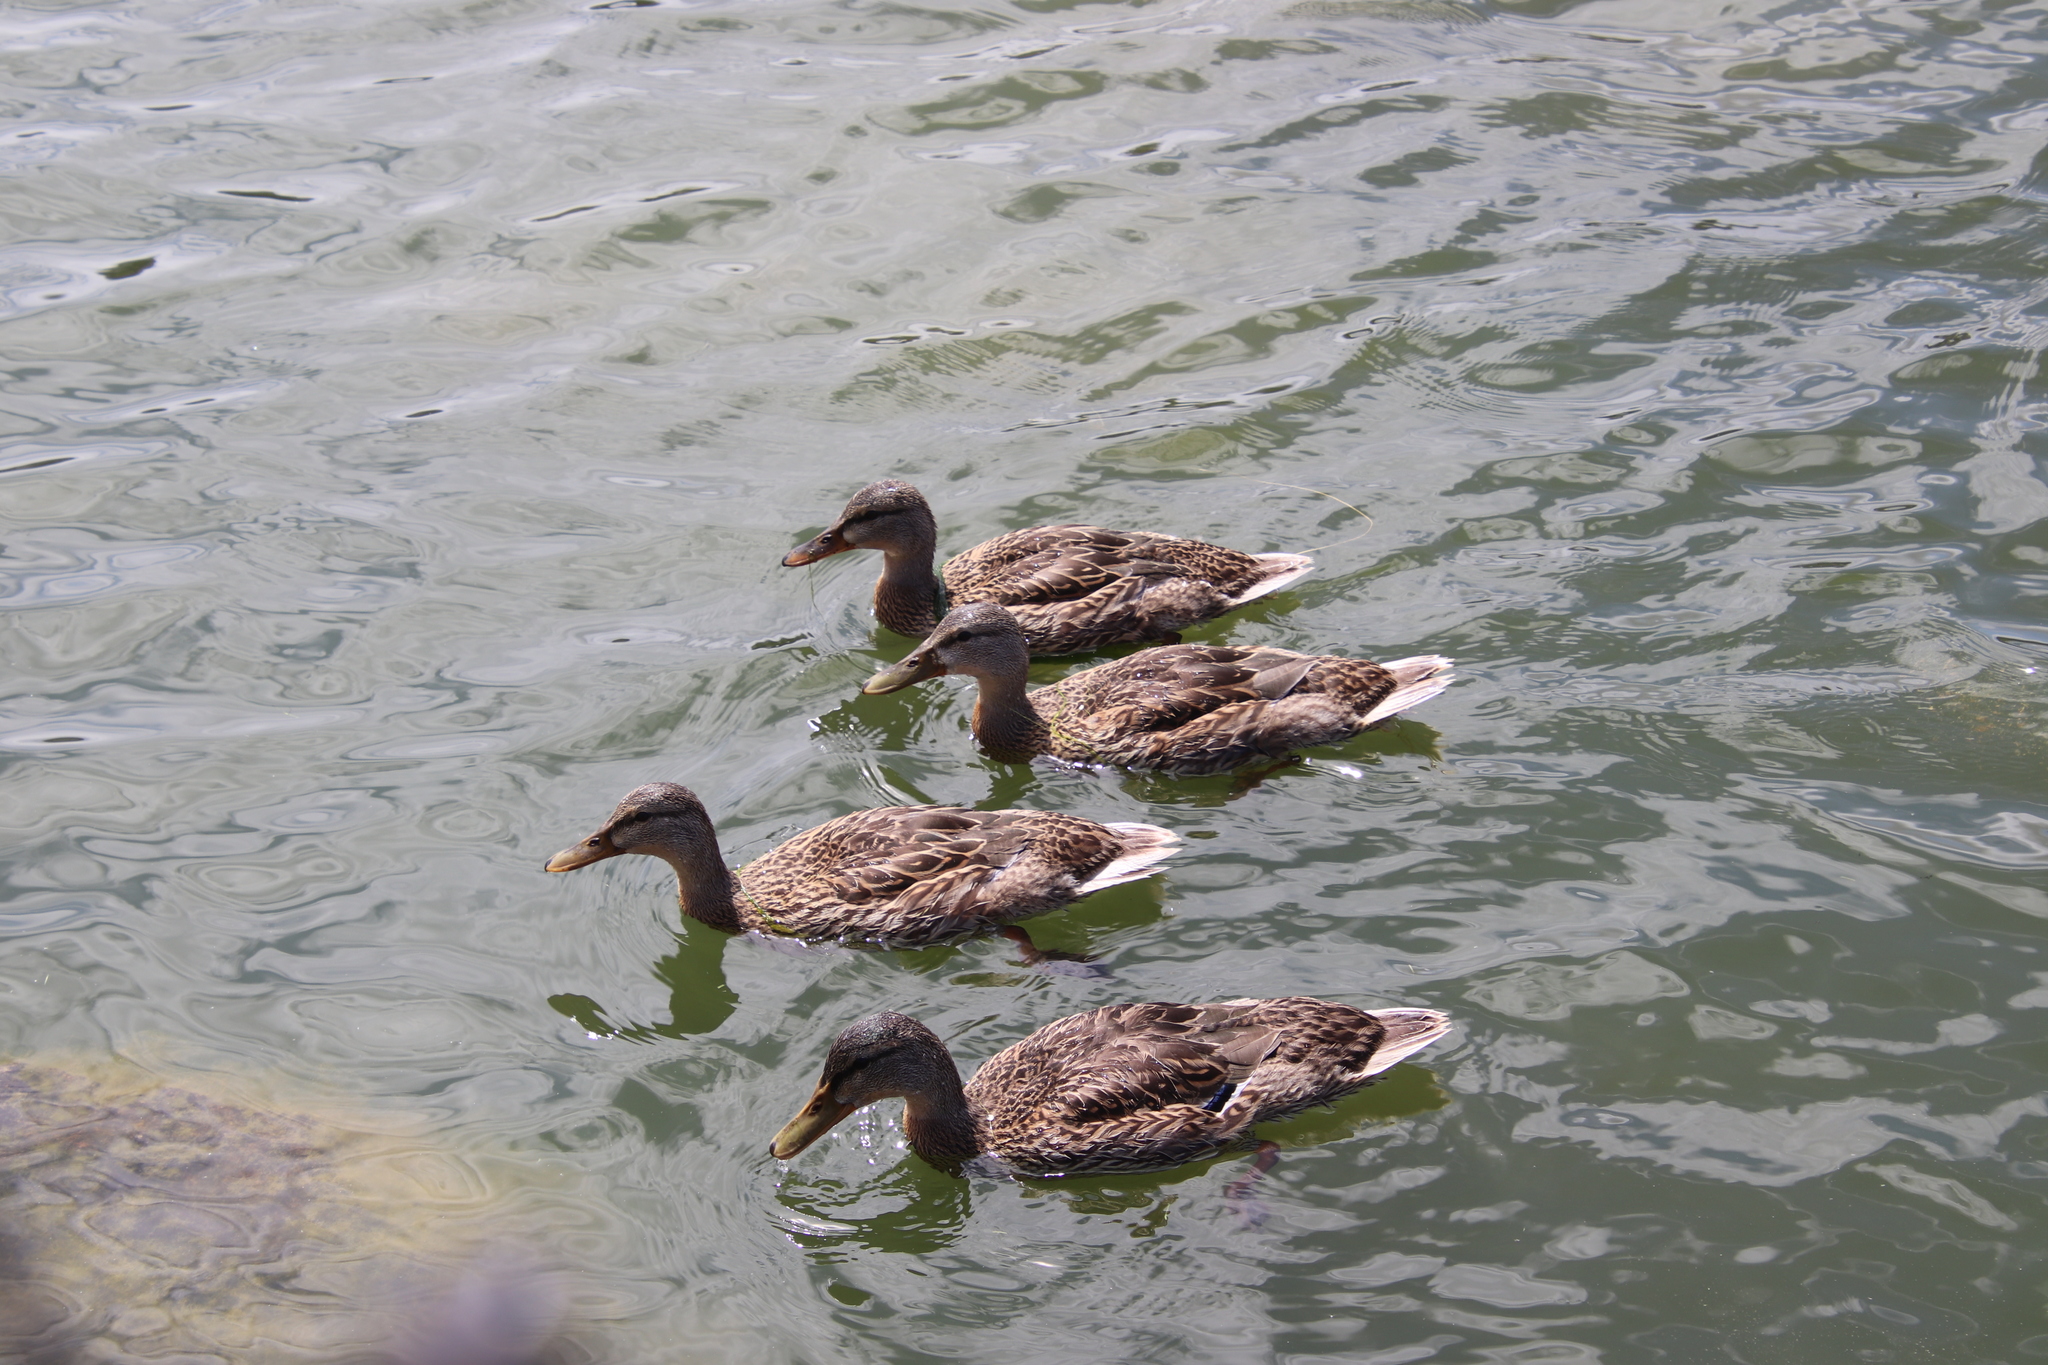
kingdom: Animalia
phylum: Chordata
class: Aves
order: Anseriformes
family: Anatidae
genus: Anas
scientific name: Anas platyrhynchos
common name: Mallard
